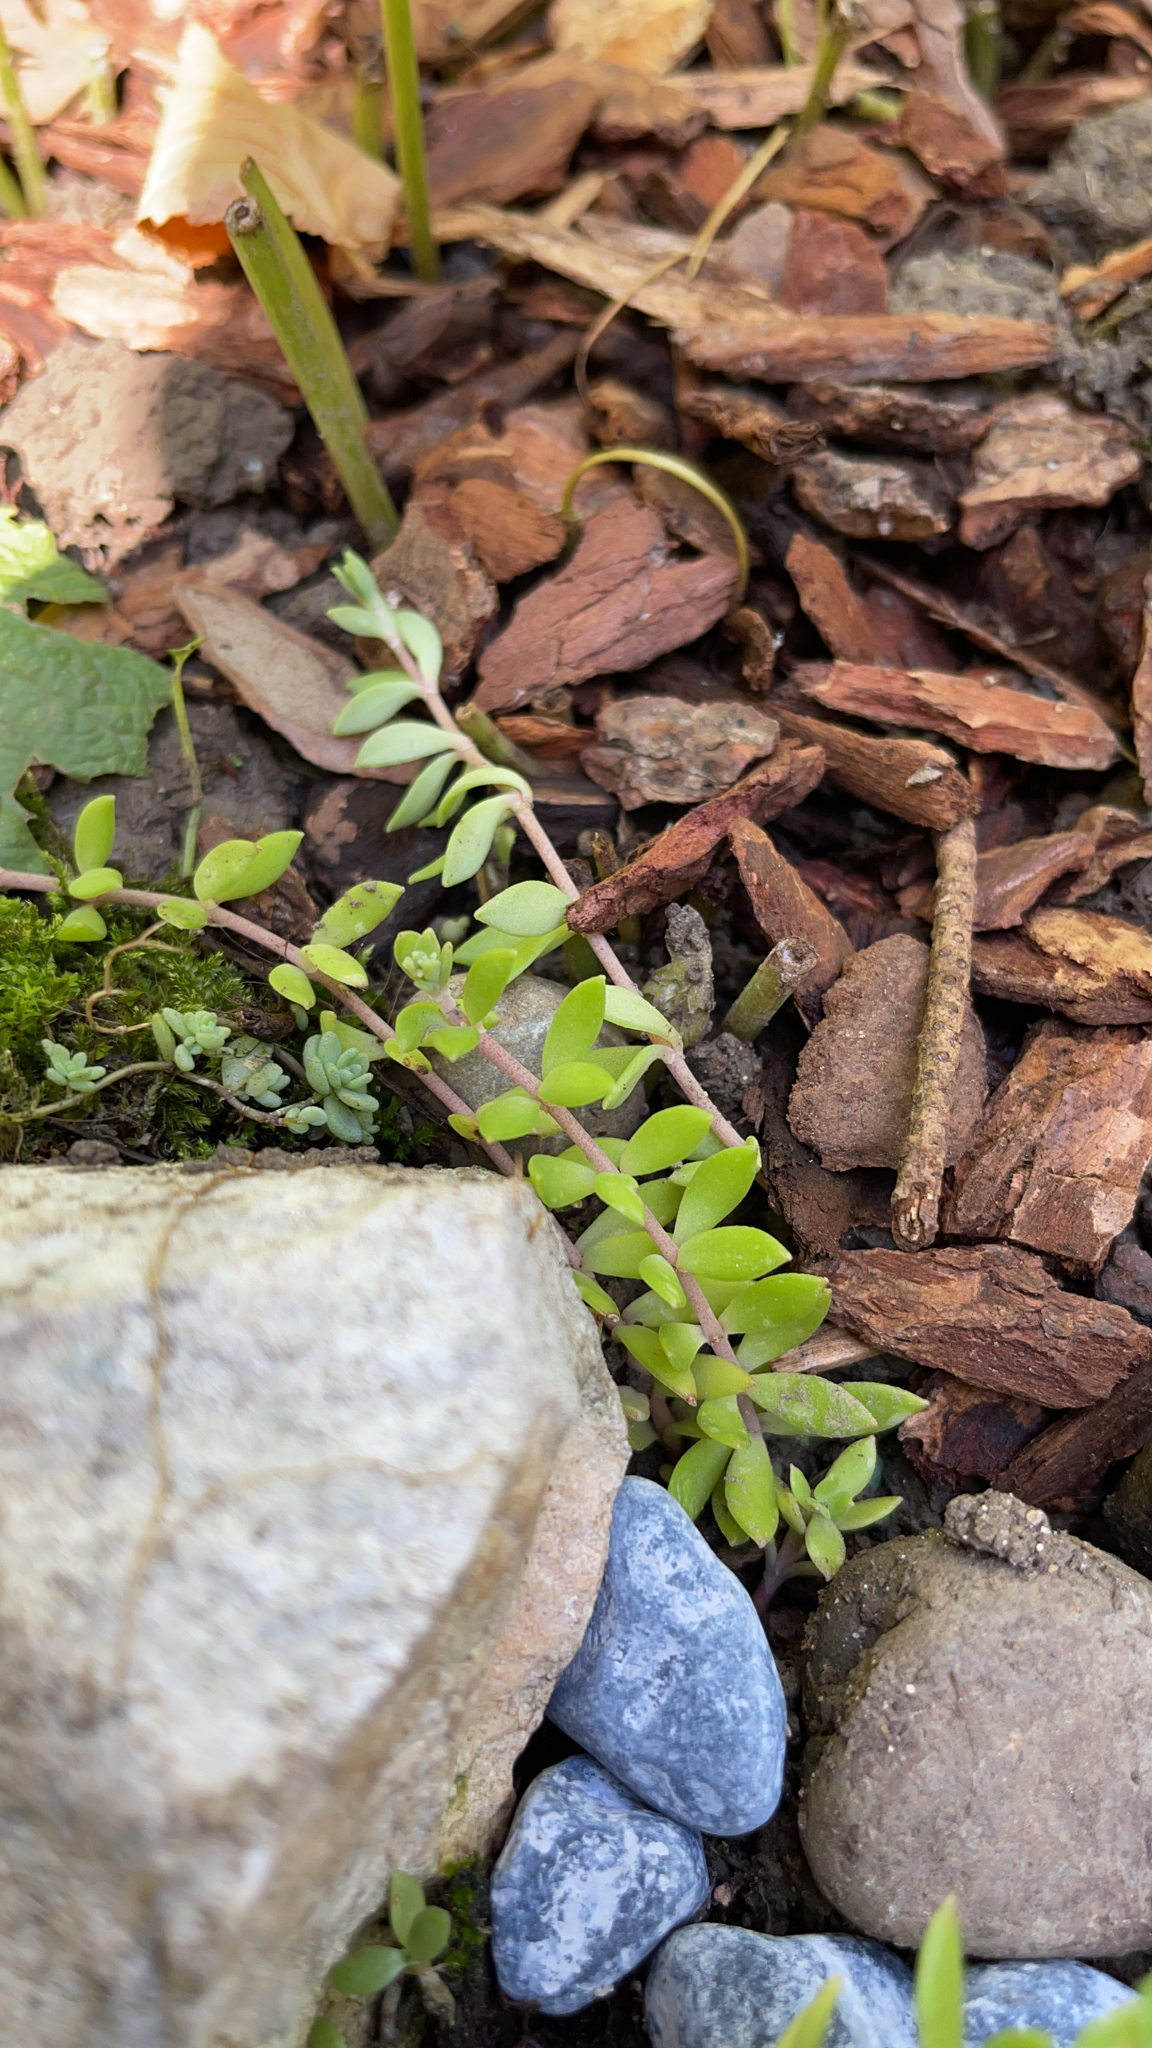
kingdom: Plantae
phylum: Tracheophyta
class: Magnoliopsida
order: Saxifragales
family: Crassulaceae
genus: Sedum
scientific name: Sedum sarmentosum
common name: Stringy stonecrop
